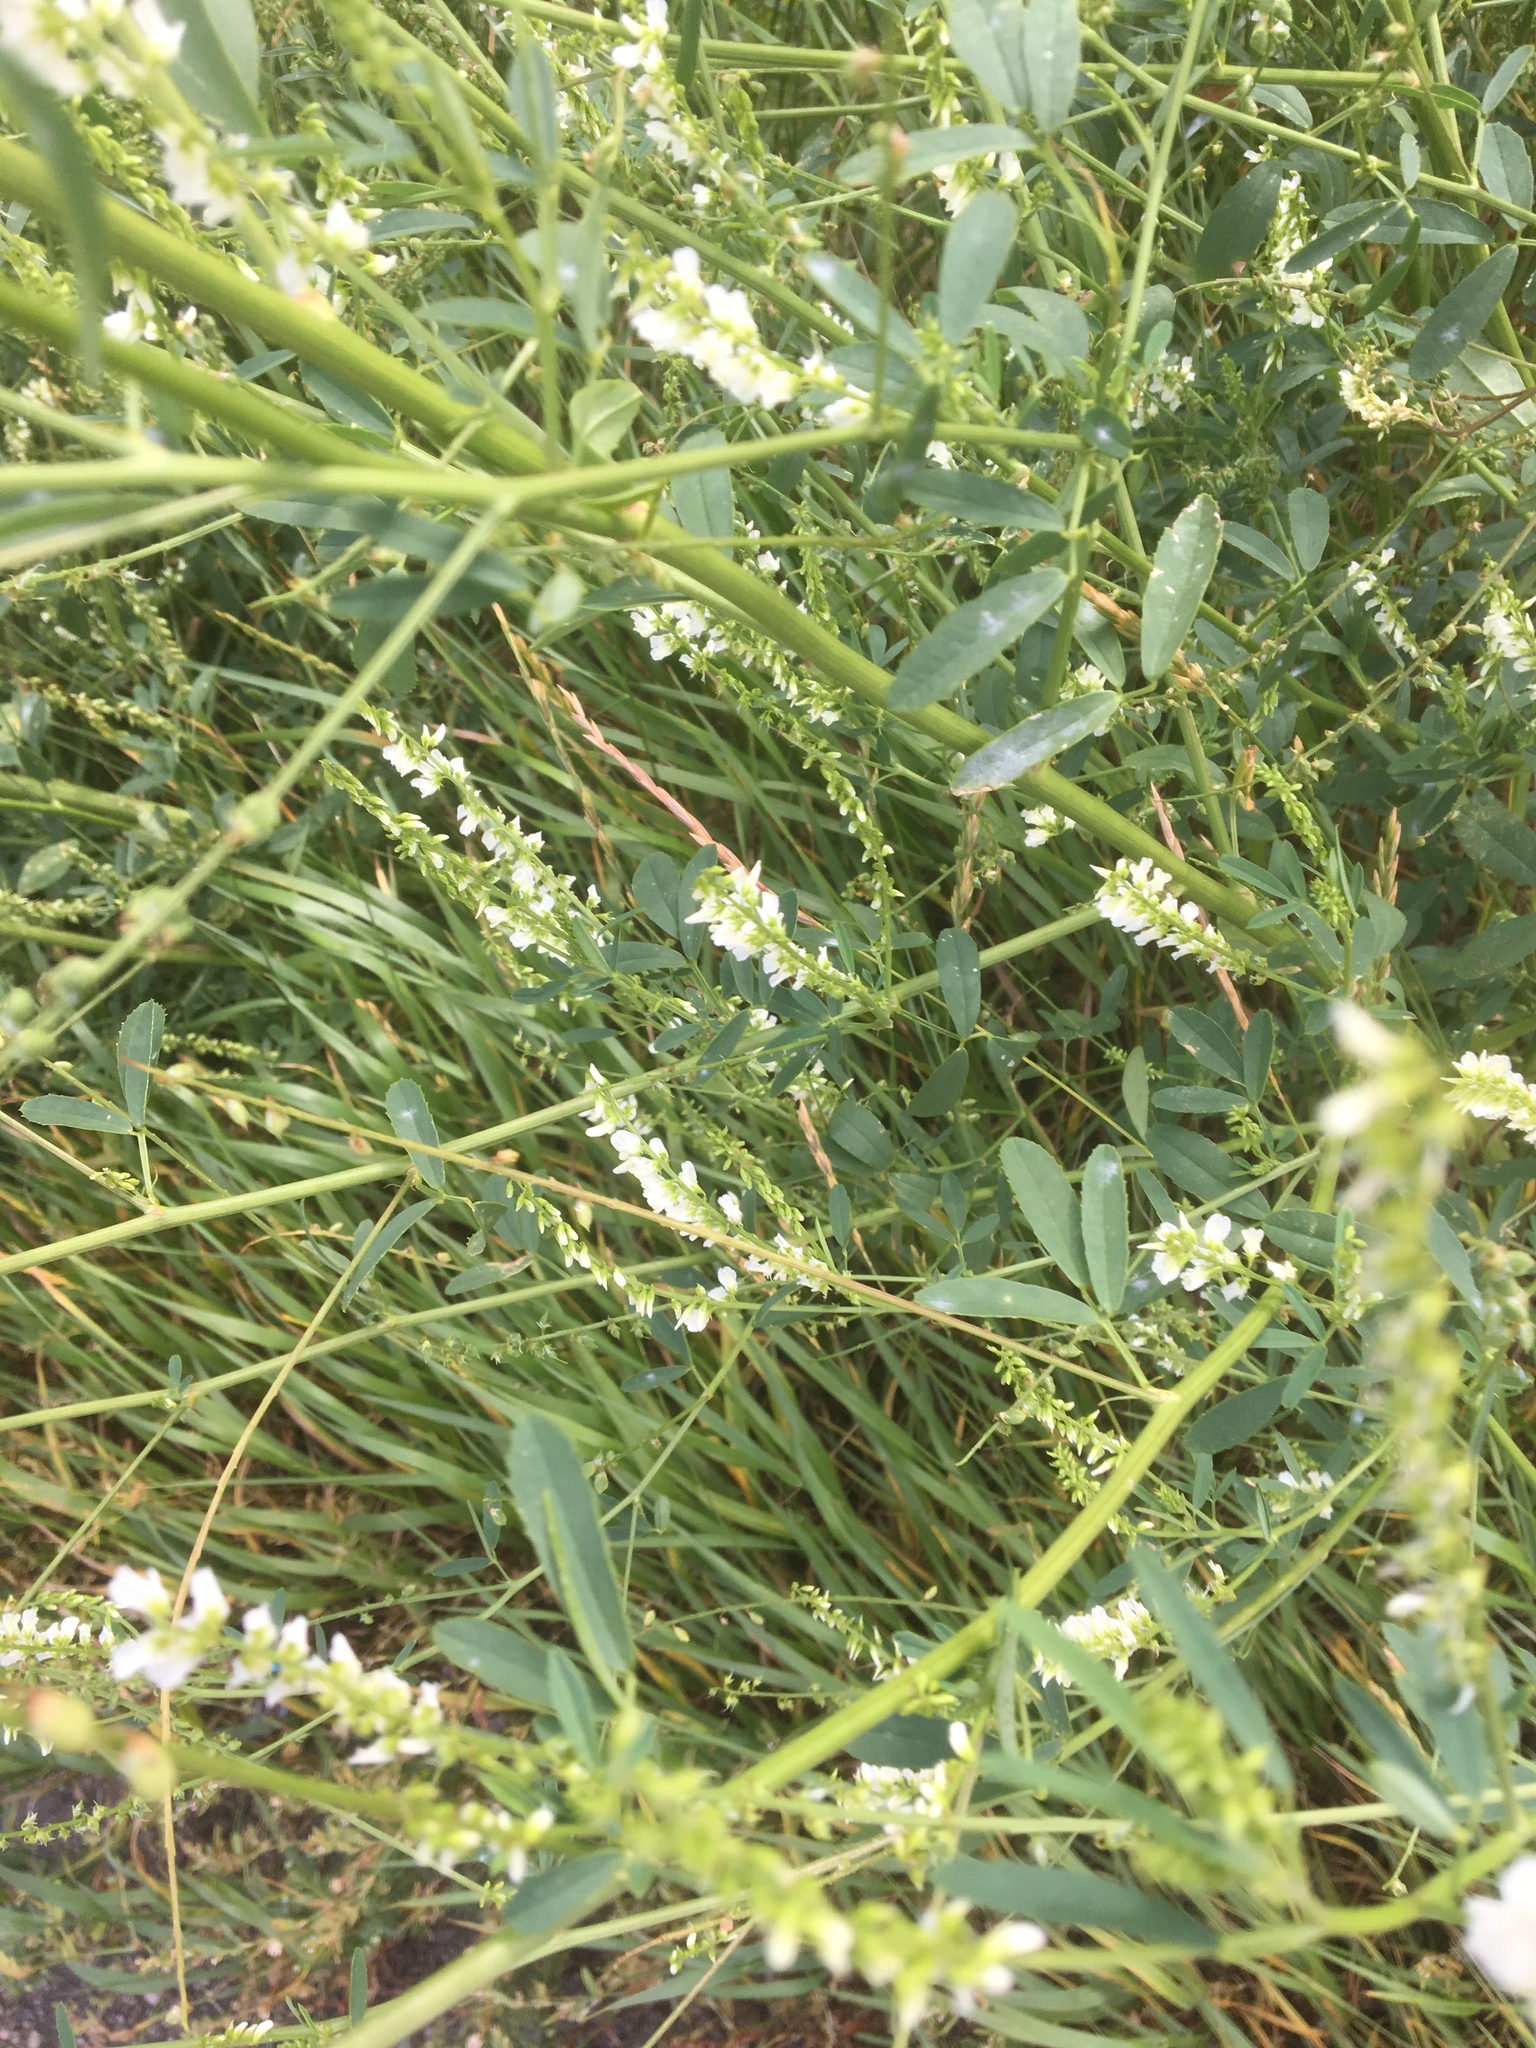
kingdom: Plantae
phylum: Tracheophyta
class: Magnoliopsida
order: Fabales
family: Fabaceae
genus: Melilotus
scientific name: Melilotus albus
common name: White melilot
